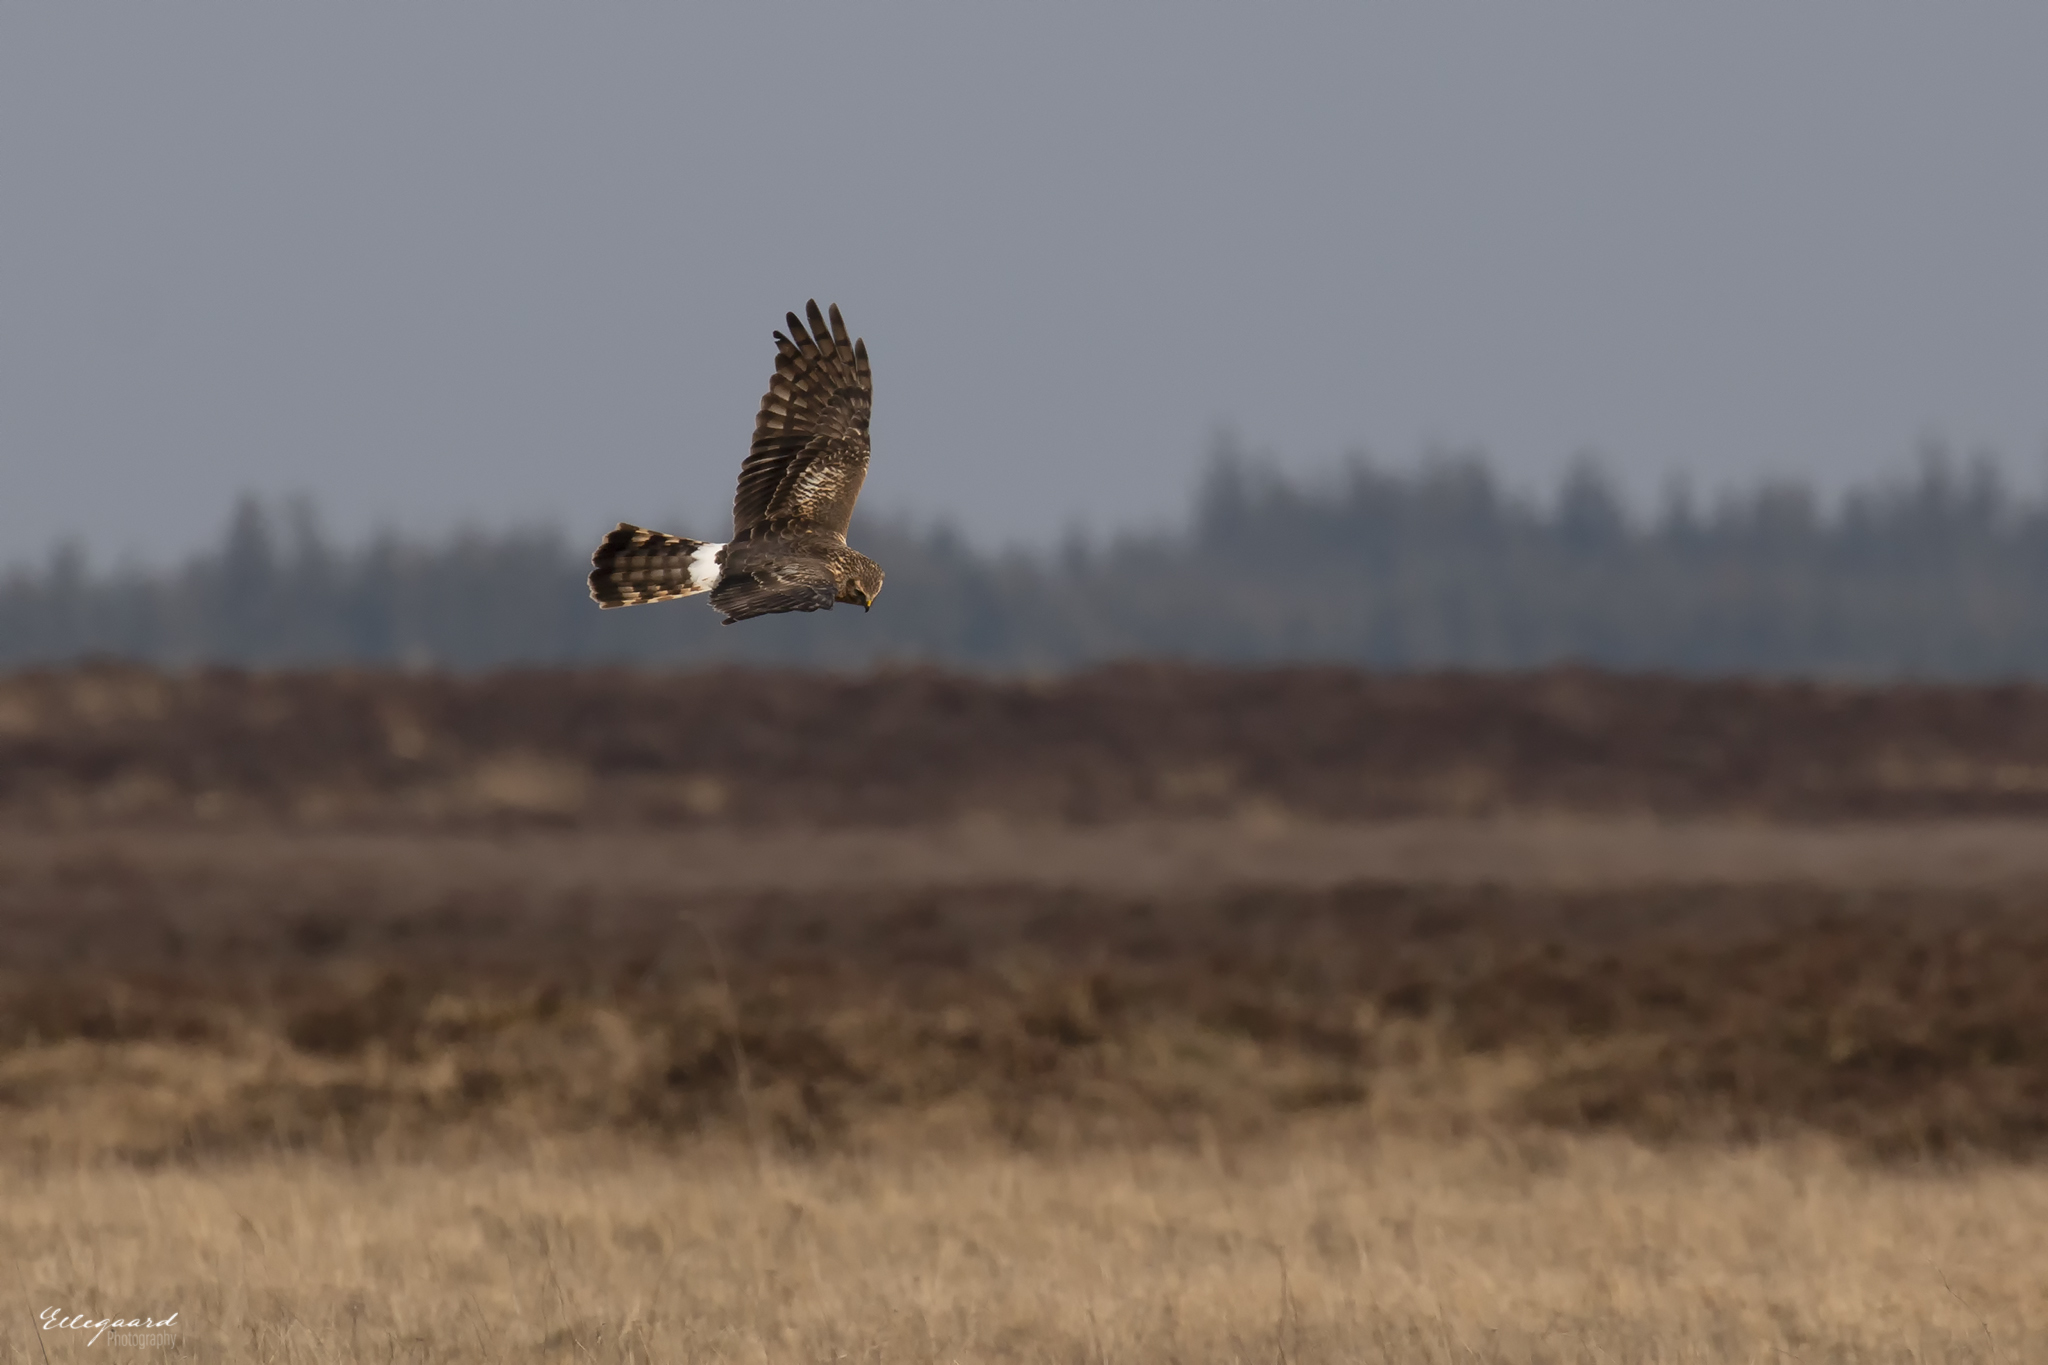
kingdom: Animalia
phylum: Chordata
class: Aves
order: Accipitriformes
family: Accipitridae
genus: Circus
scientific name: Circus cyaneus
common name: Hen harrier
